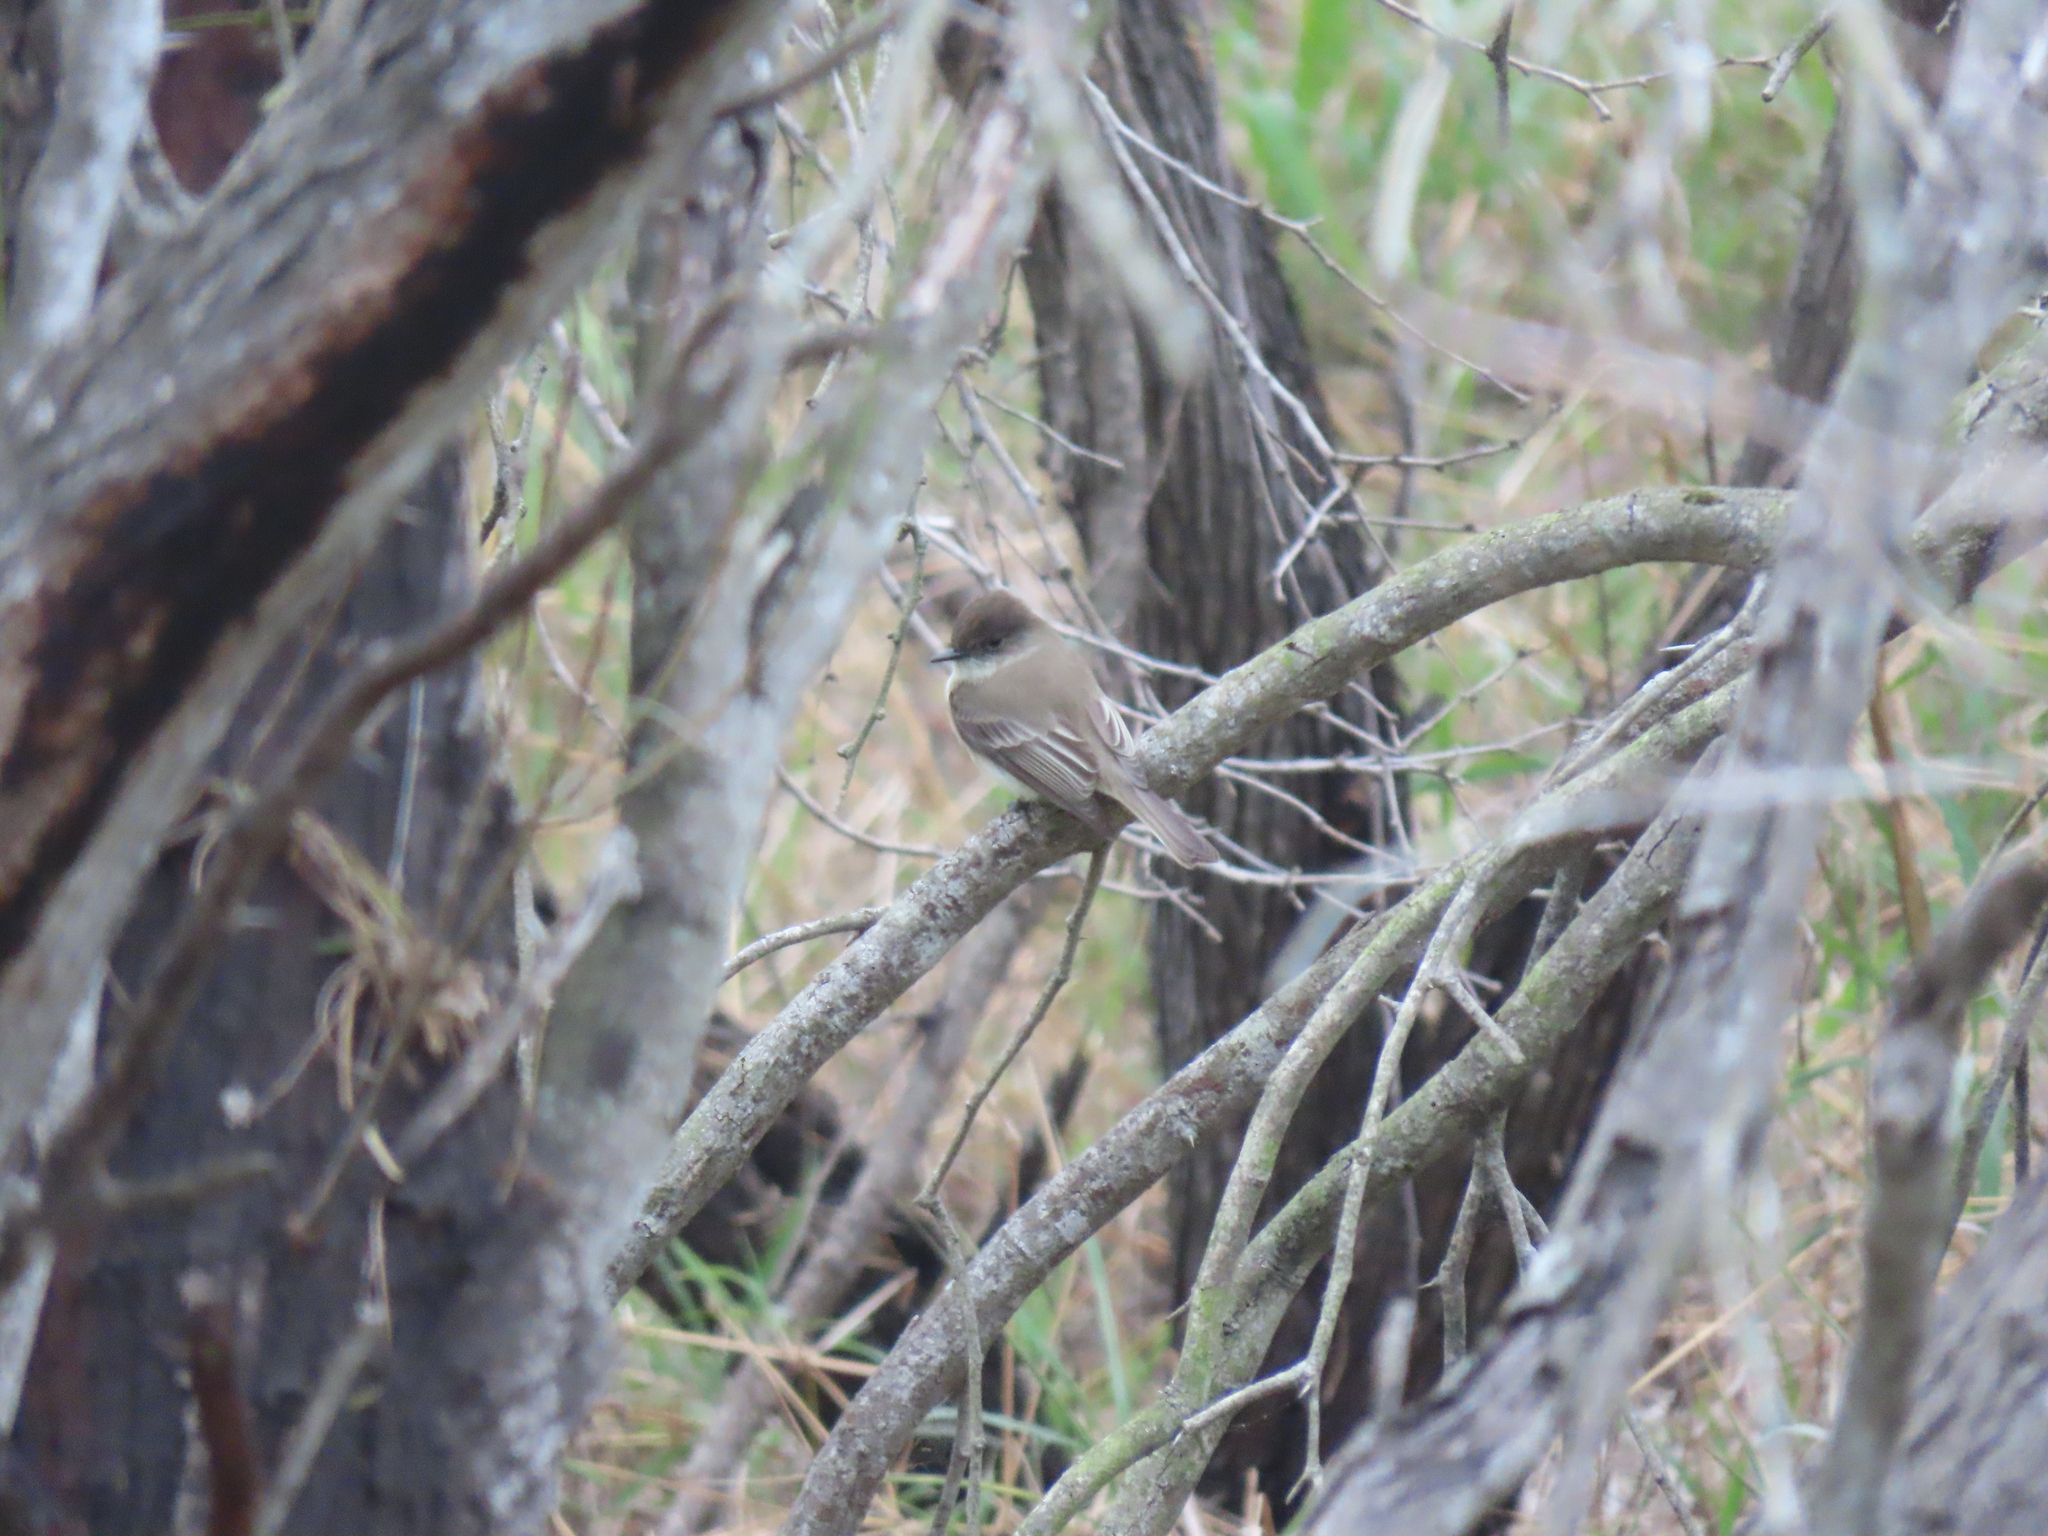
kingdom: Animalia
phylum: Chordata
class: Aves
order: Passeriformes
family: Tyrannidae
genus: Sayornis
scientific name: Sayornis phoebe
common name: Eastern phoebe
